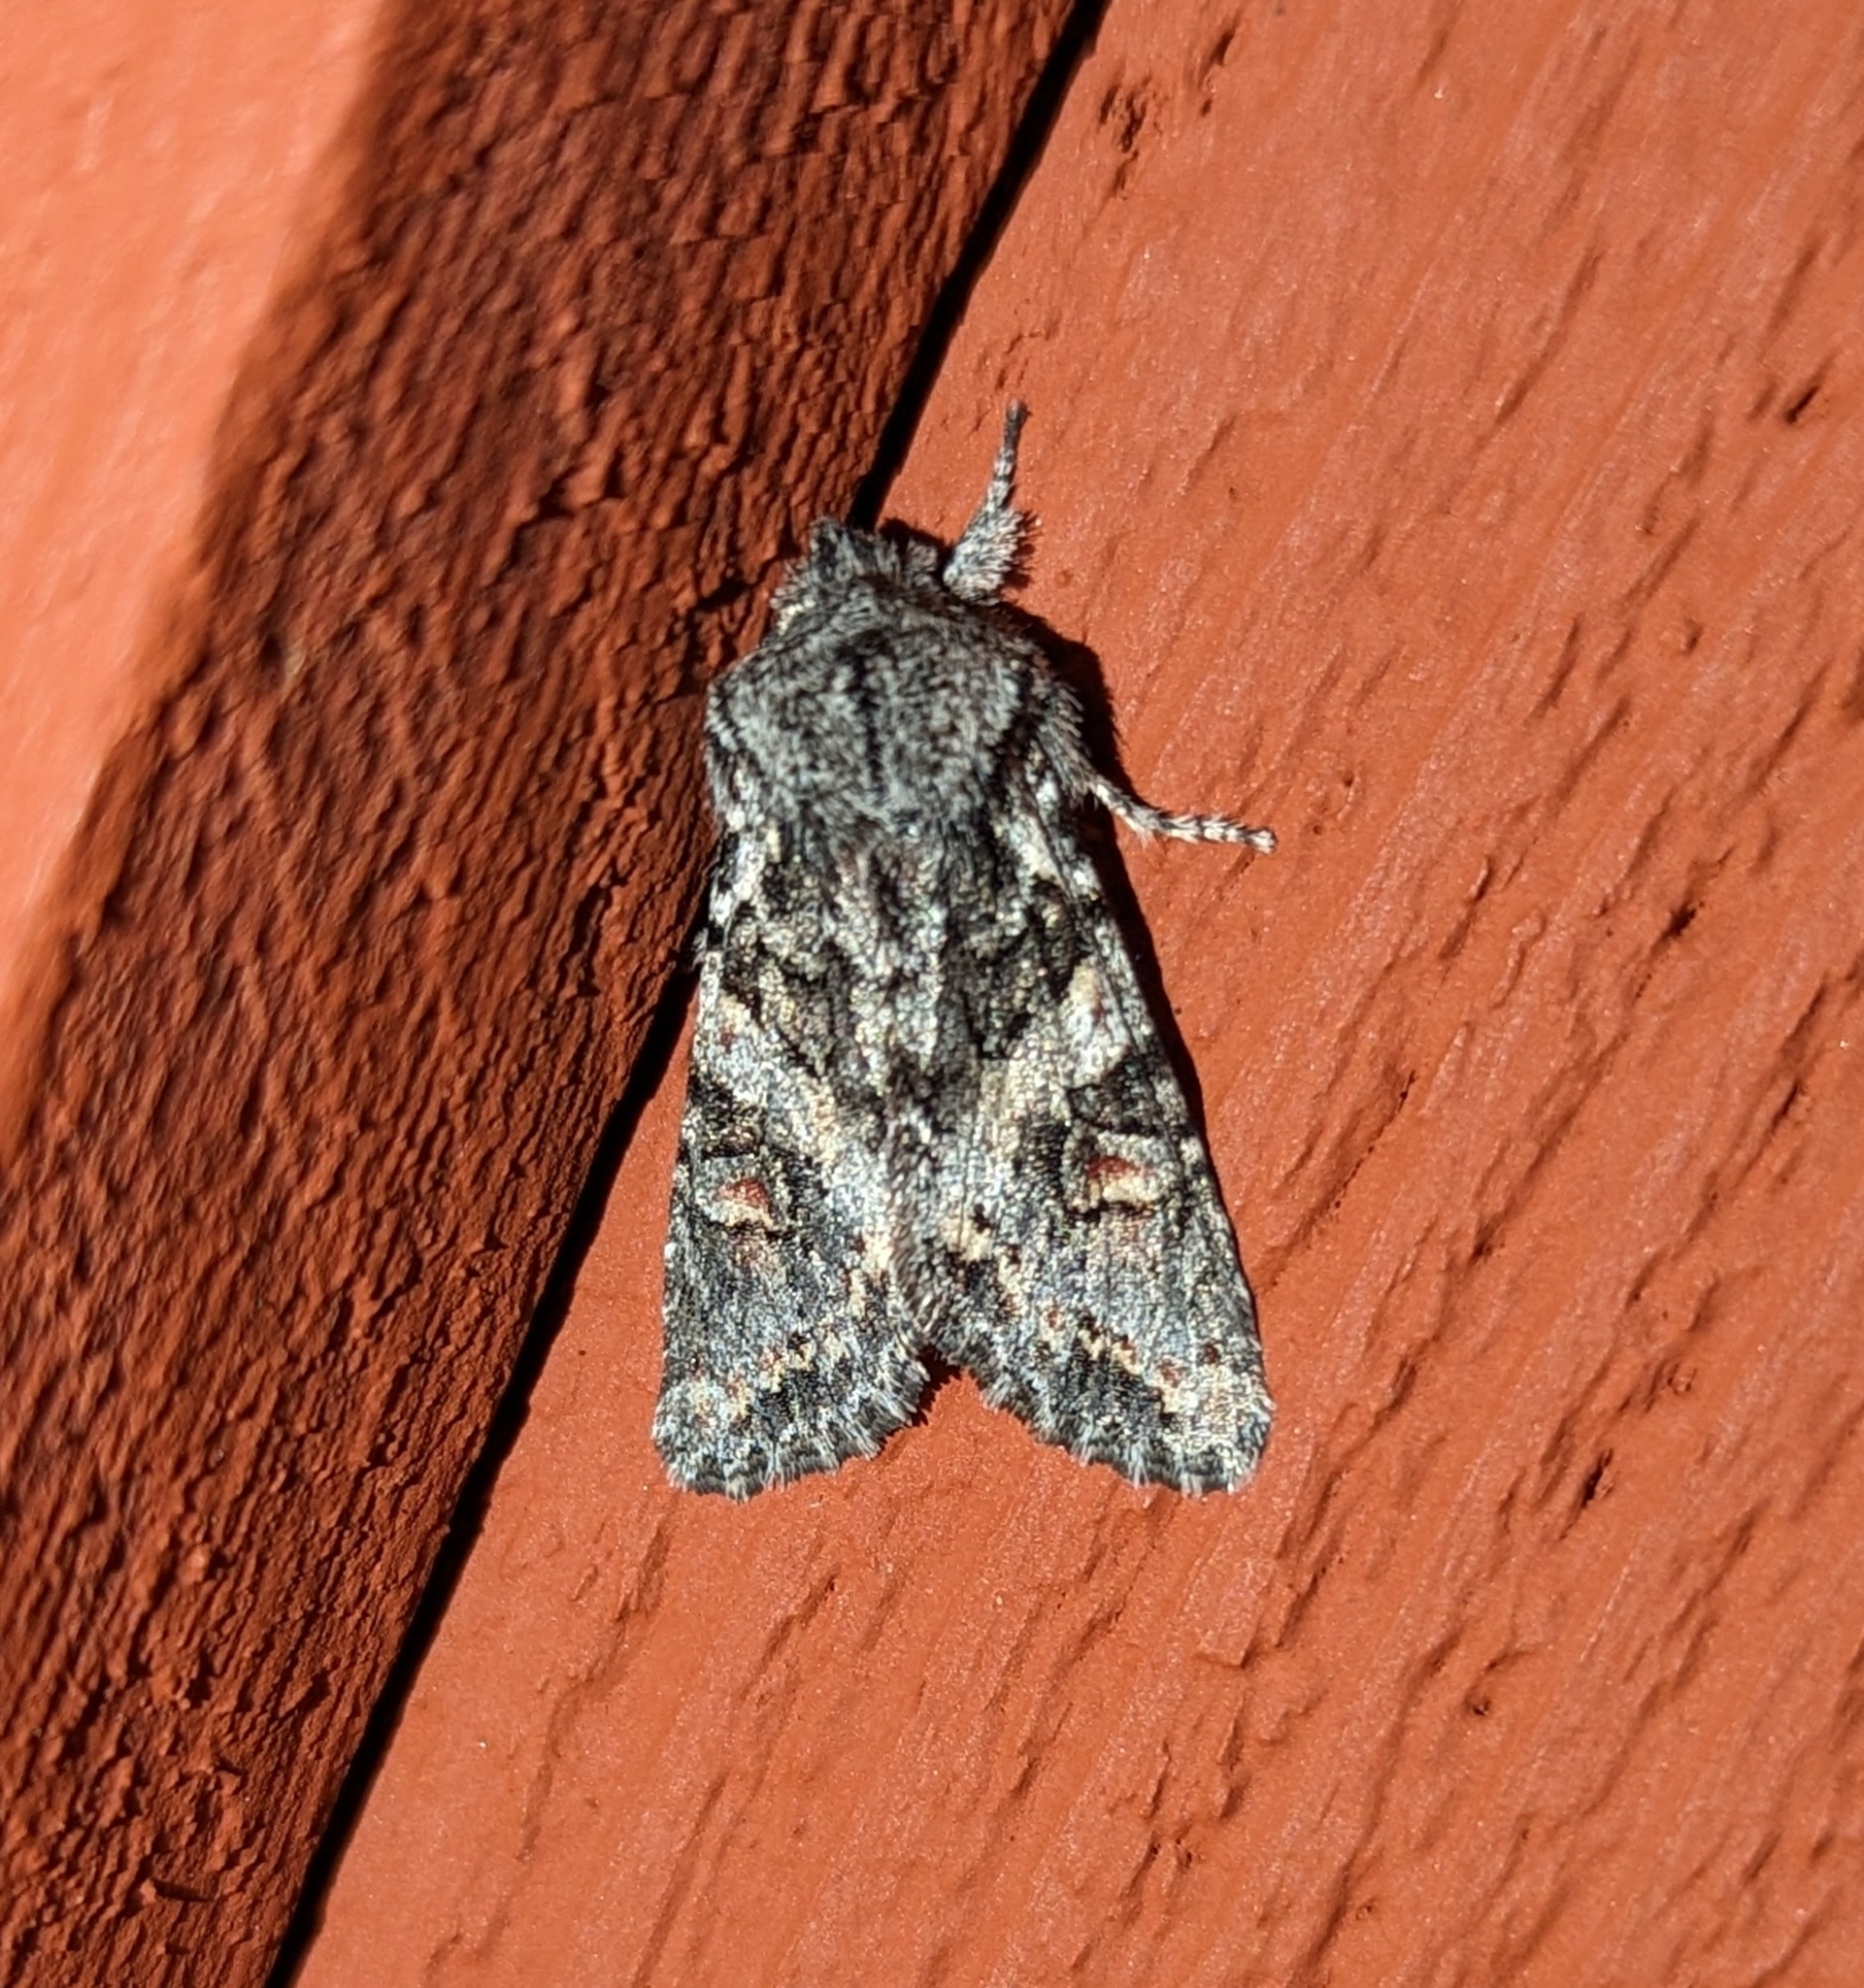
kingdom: Animalia
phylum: Arthropoda
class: Insecta
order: Lepidoptera
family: Noctuidae
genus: Egira
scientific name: Egira hiemalis
